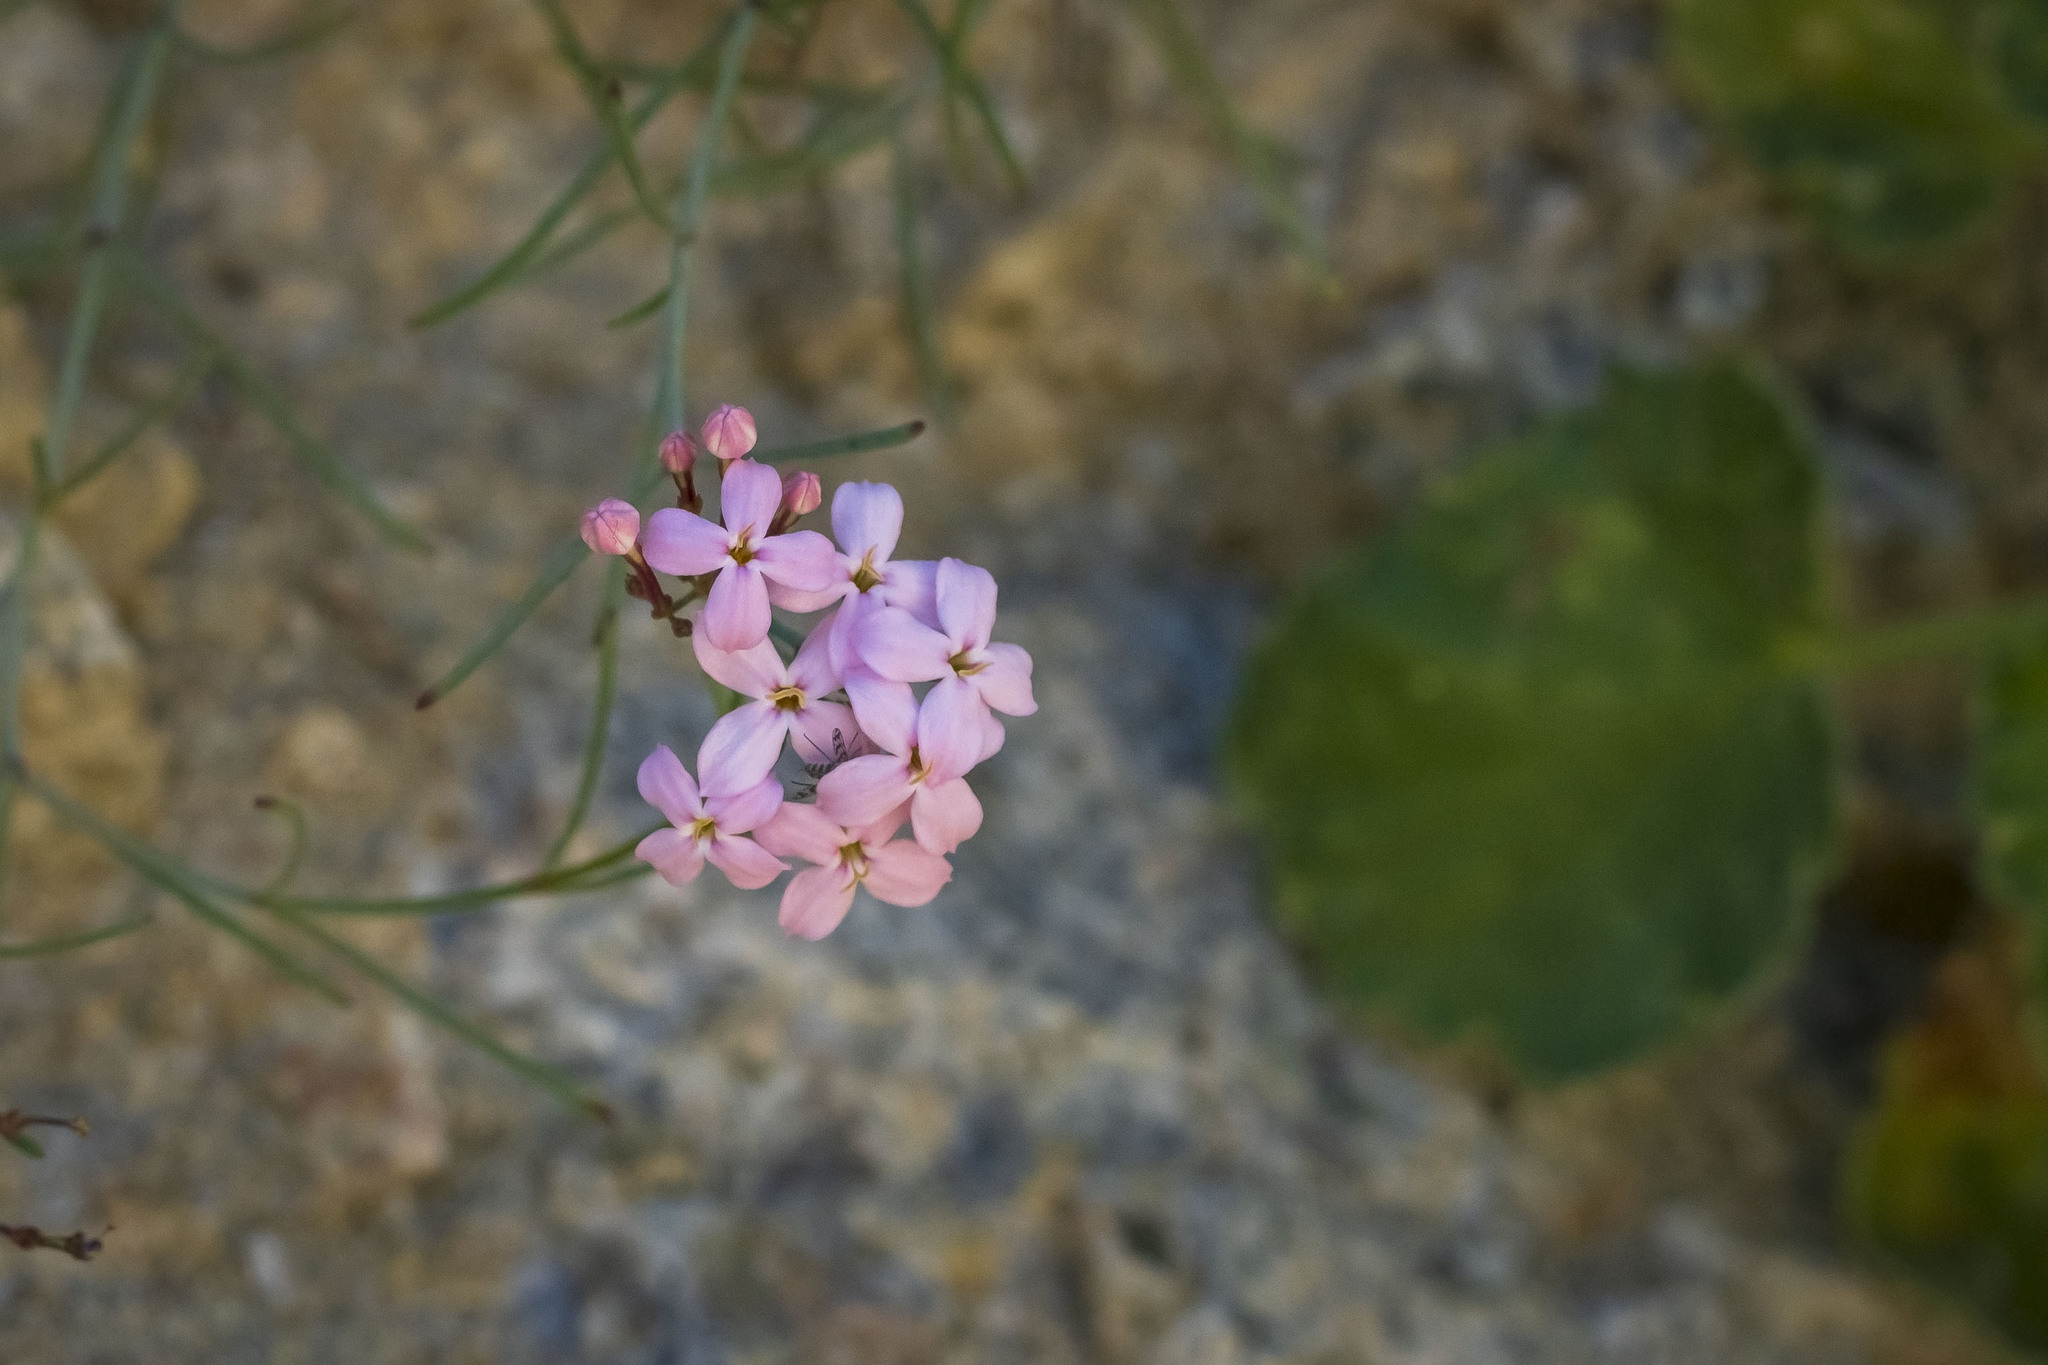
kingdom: Plantae
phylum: Tracheophyta
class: Magnoliopsida
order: Gentianales
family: Rubiaceae
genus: Stenotis
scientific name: Stenotis brevipes
